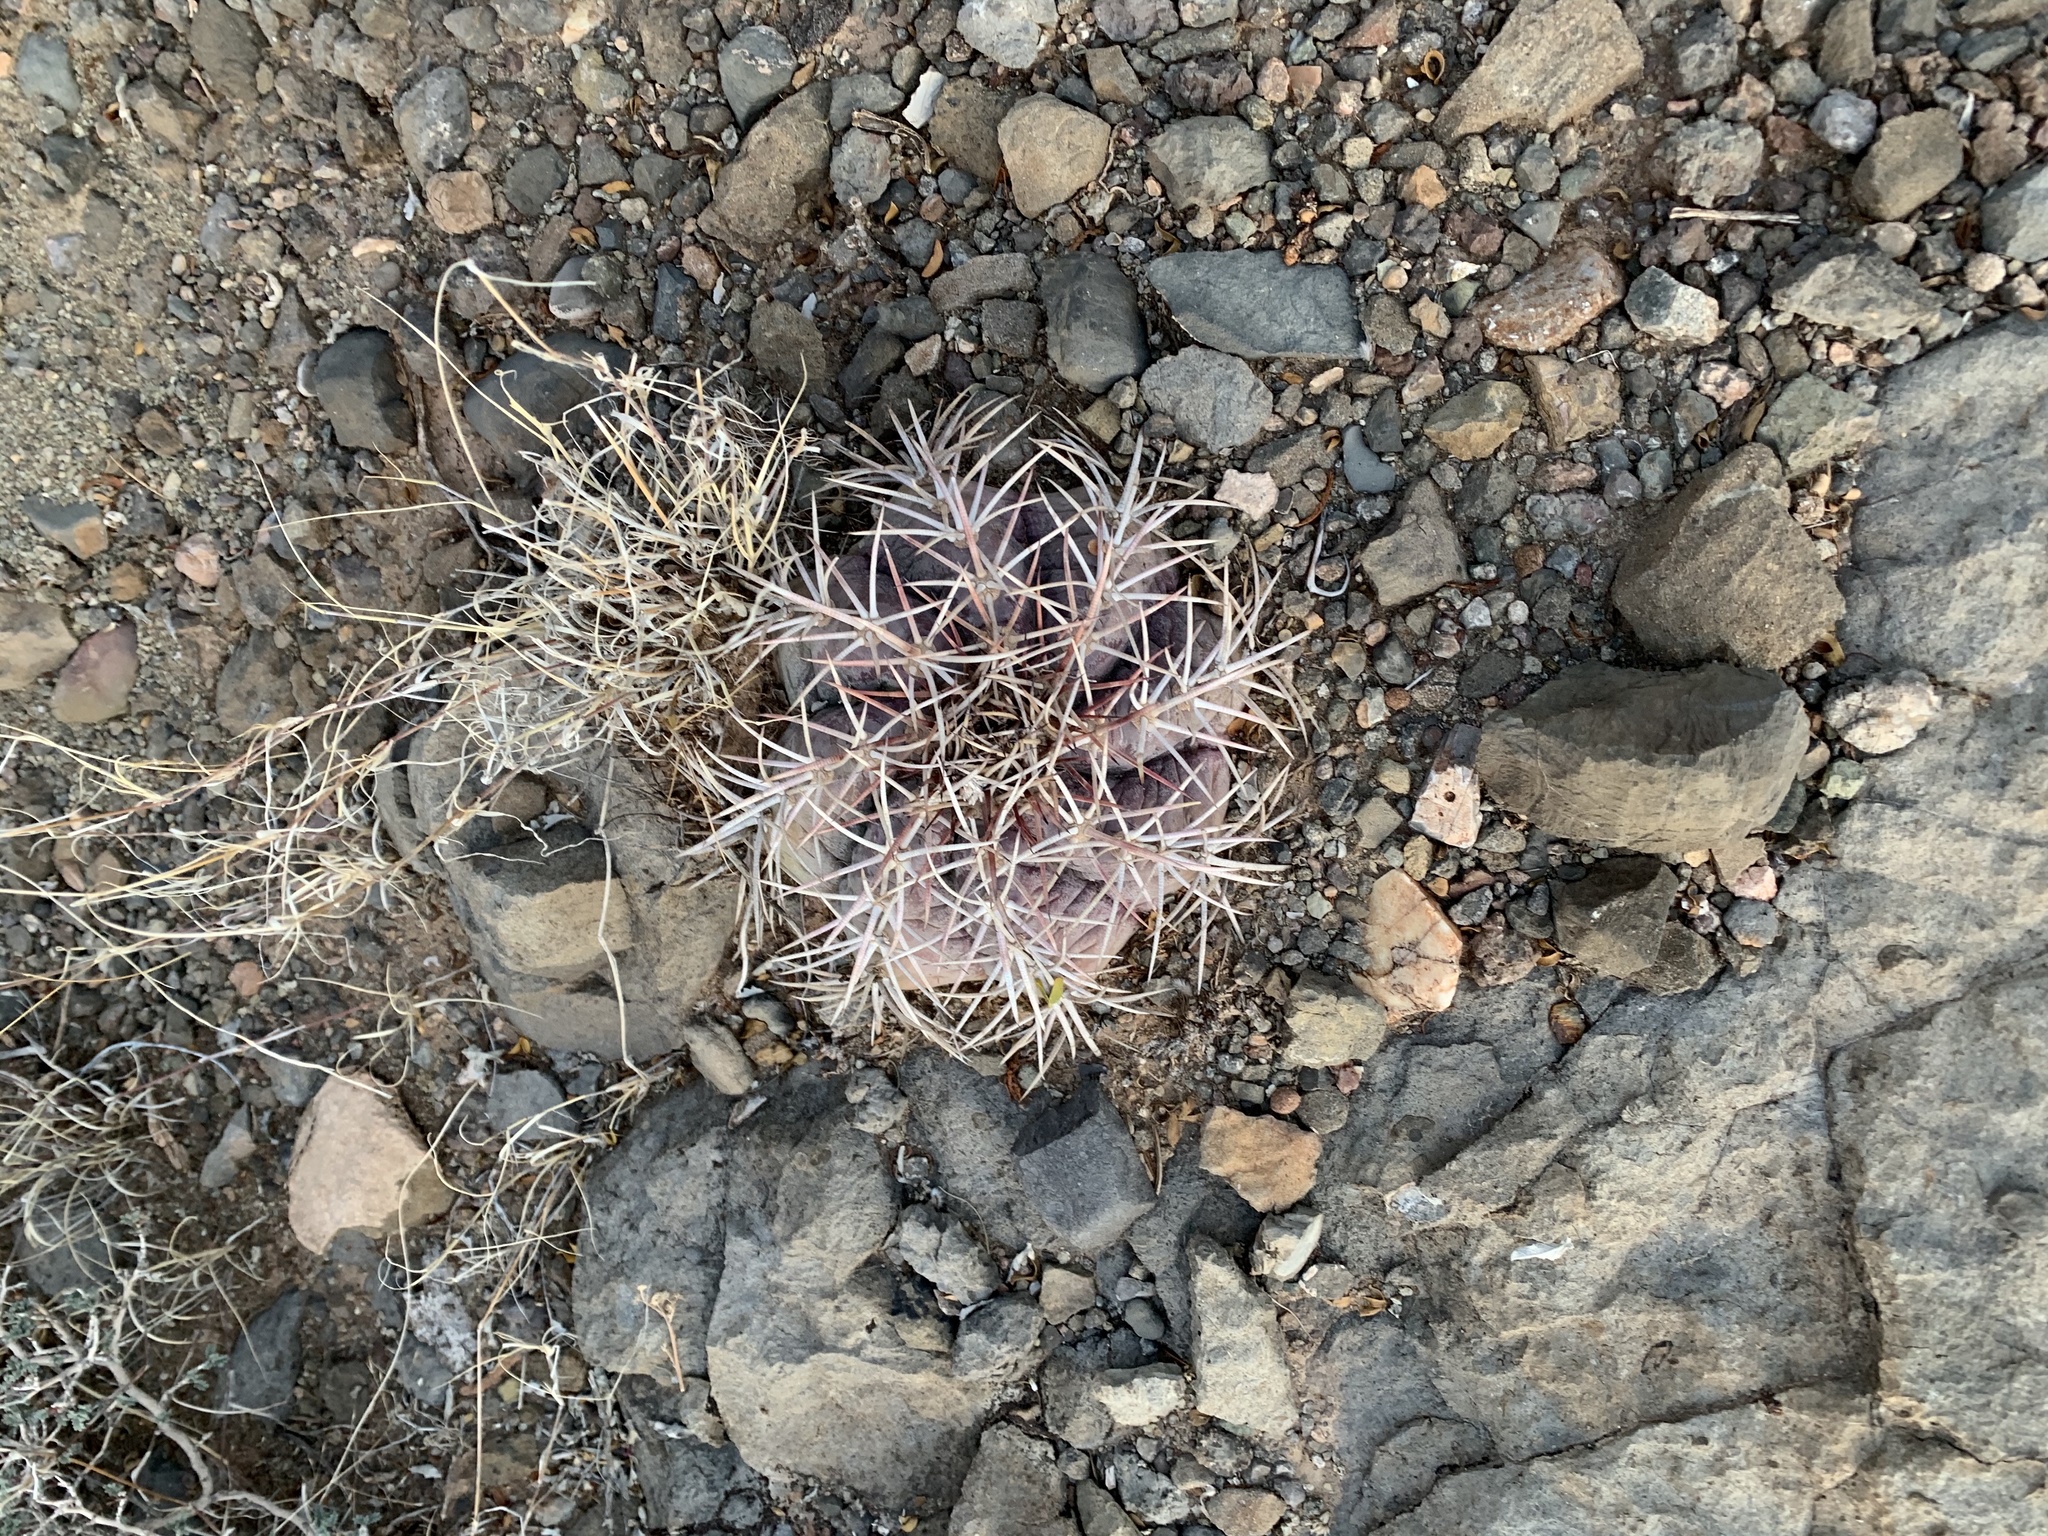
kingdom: Plantae
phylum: Tracheophyta
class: Magnoliopsida
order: Caryophyllales
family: Cactaceae
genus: Echinocactus
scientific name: Echinocactus horizonthalonius
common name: Devilshead
